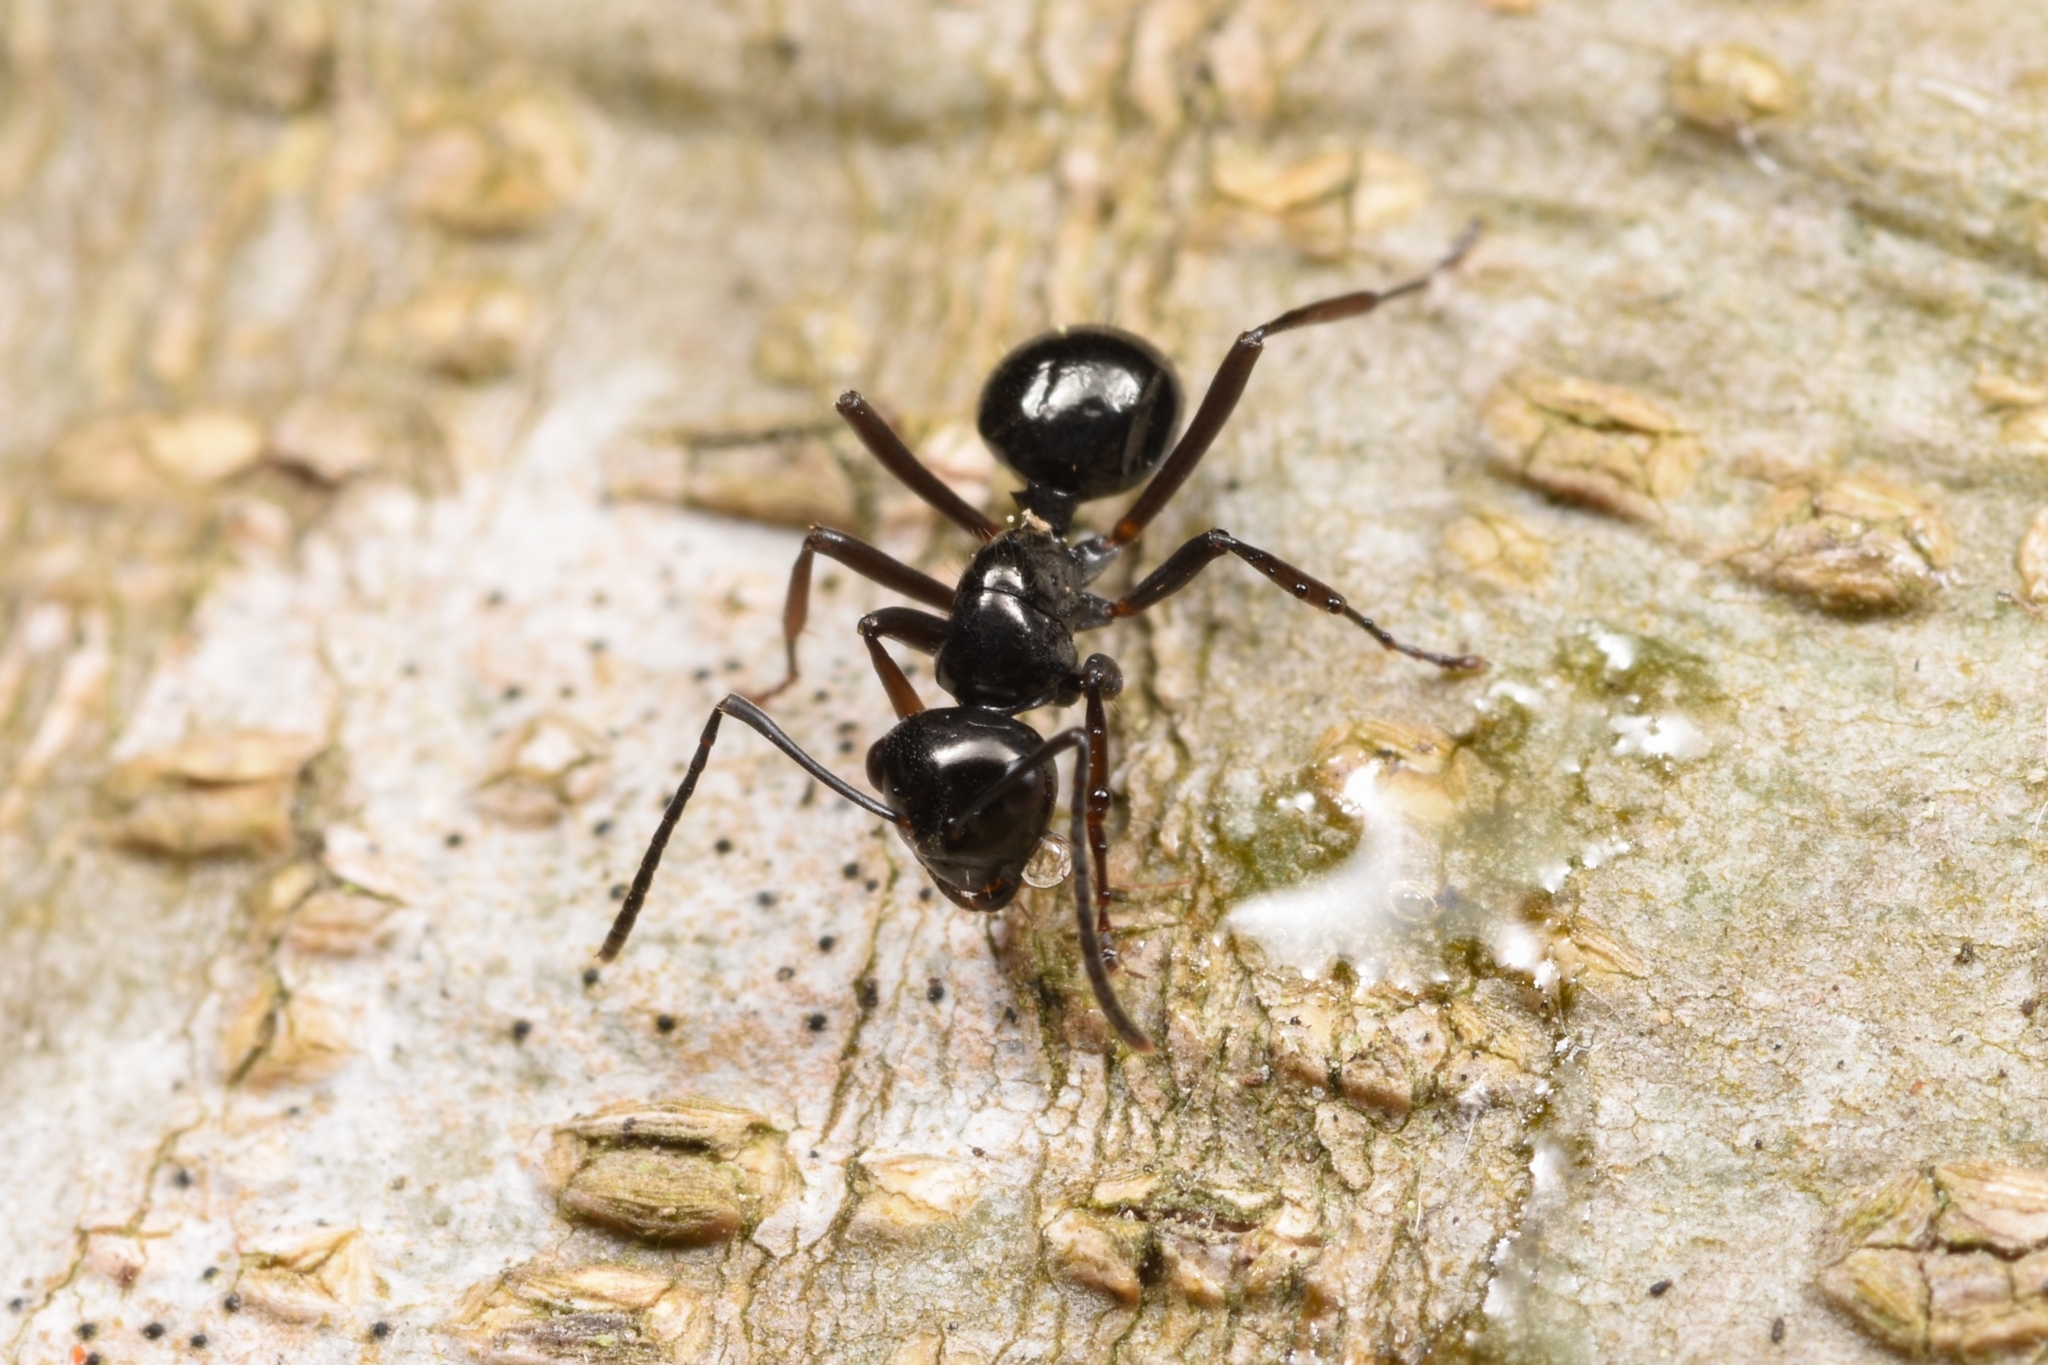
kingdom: Animalia
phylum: Arthropoda
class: Insecta
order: Hymenoptera
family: Formicidae
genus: Polyrhachis
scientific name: Polyrhachis pilosa
